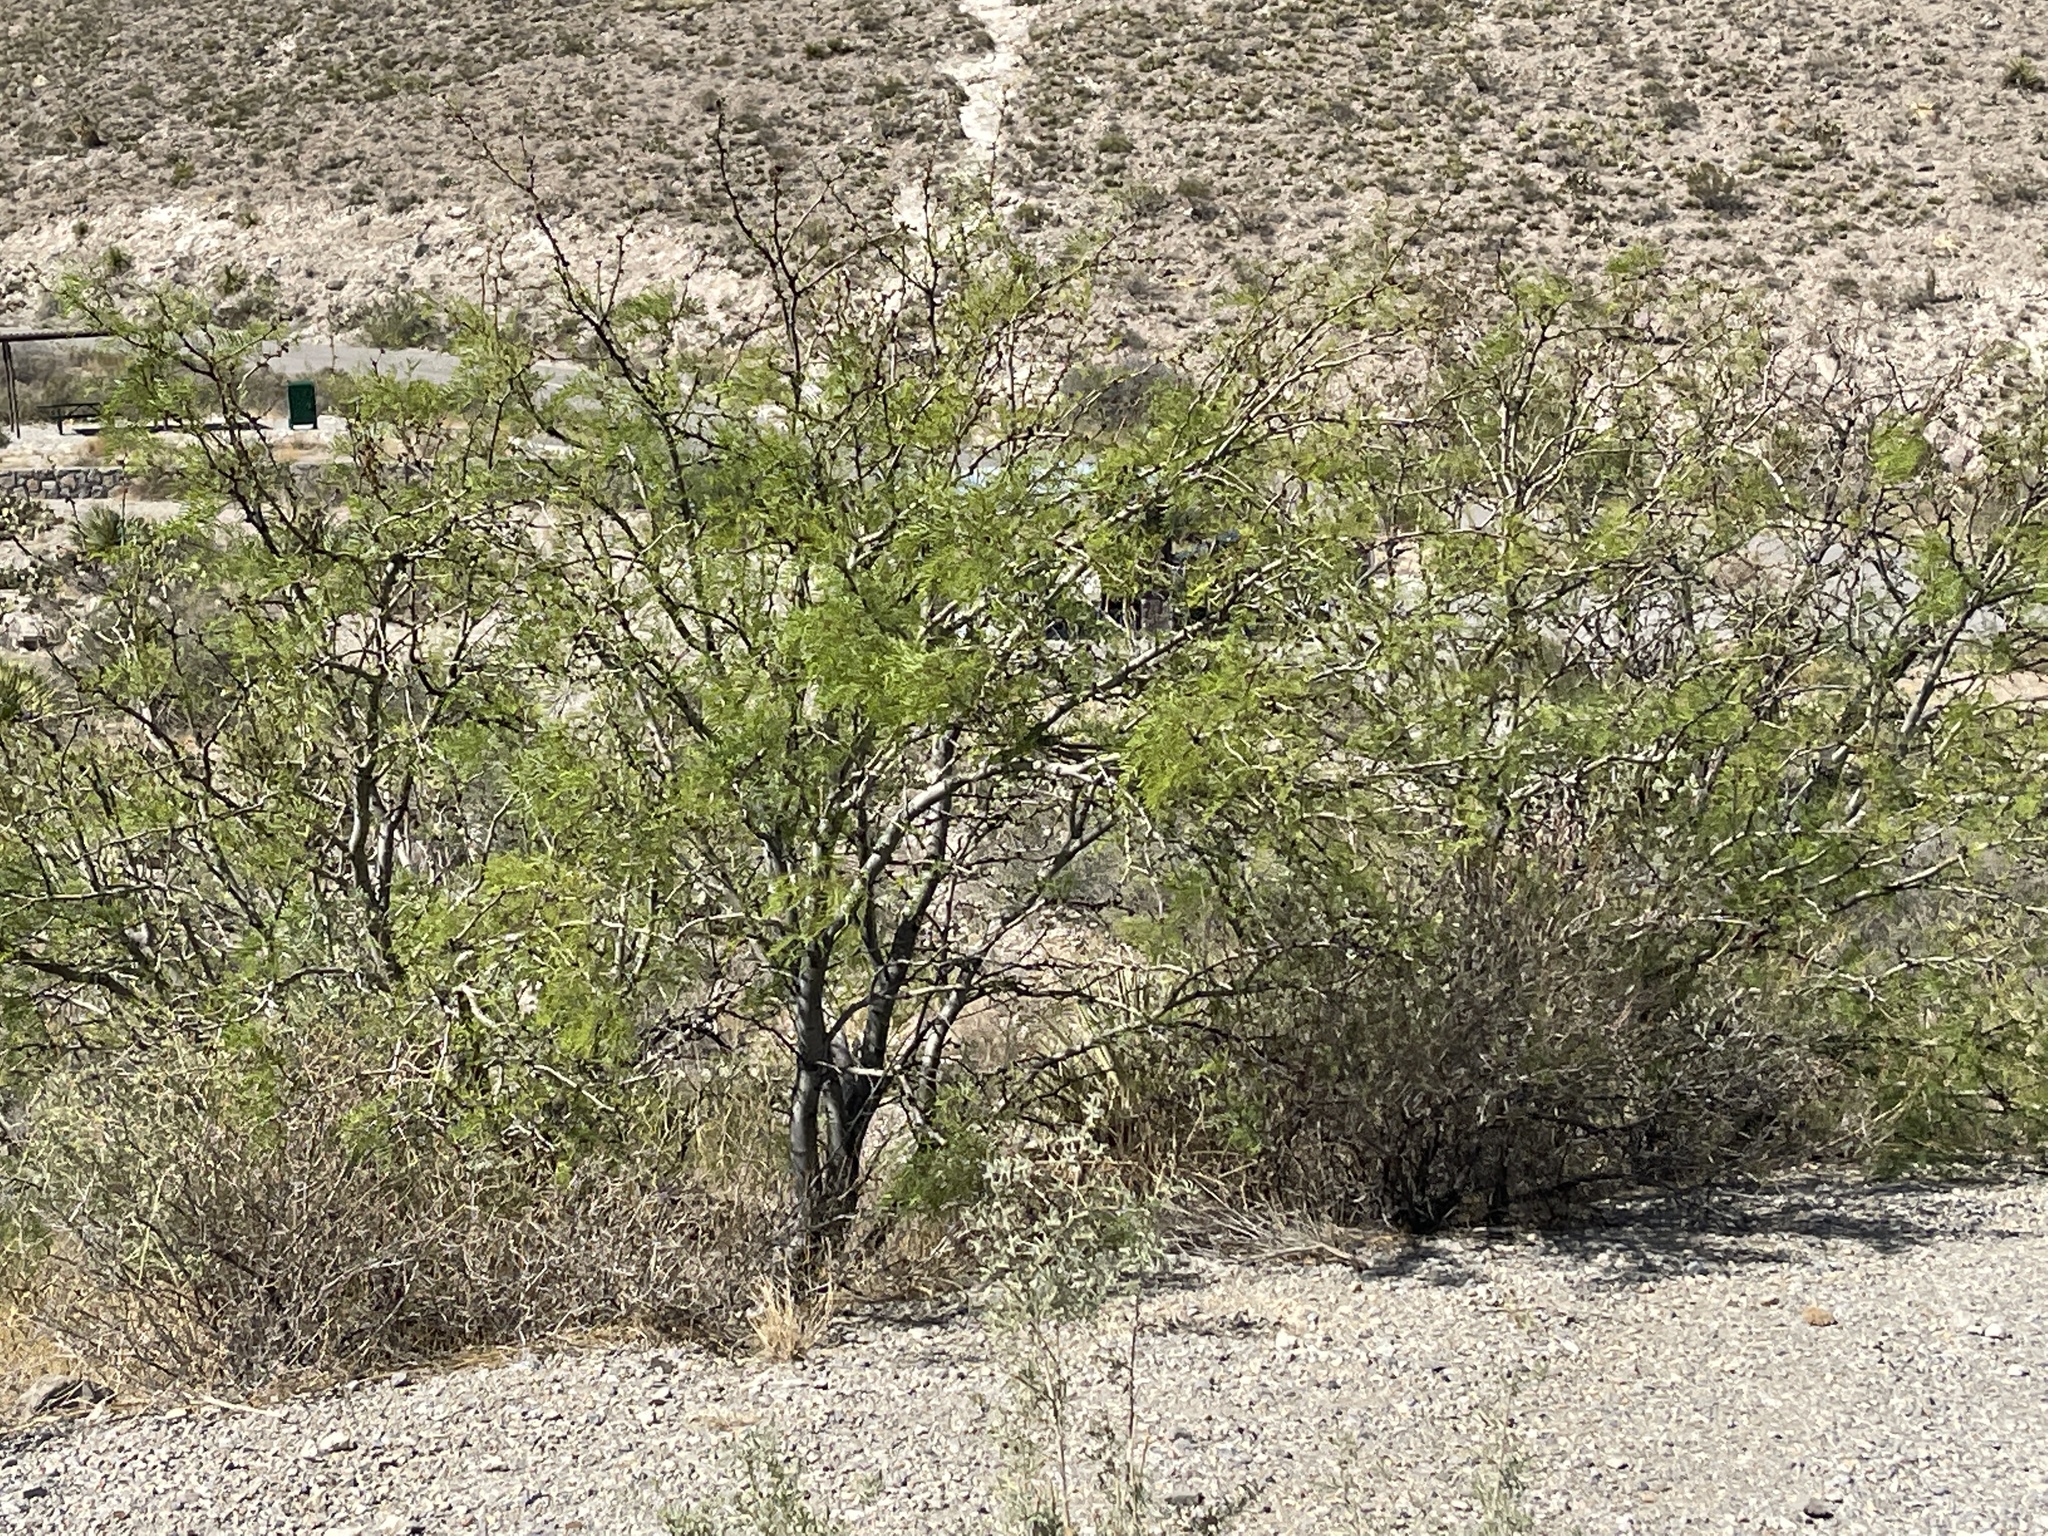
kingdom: Plantae
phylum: Tracheophyta
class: Magnoliopsida
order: Fabales
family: Fabaceae
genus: Prosopis
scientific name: Prosopis glandulosa
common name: Honey mesquite
